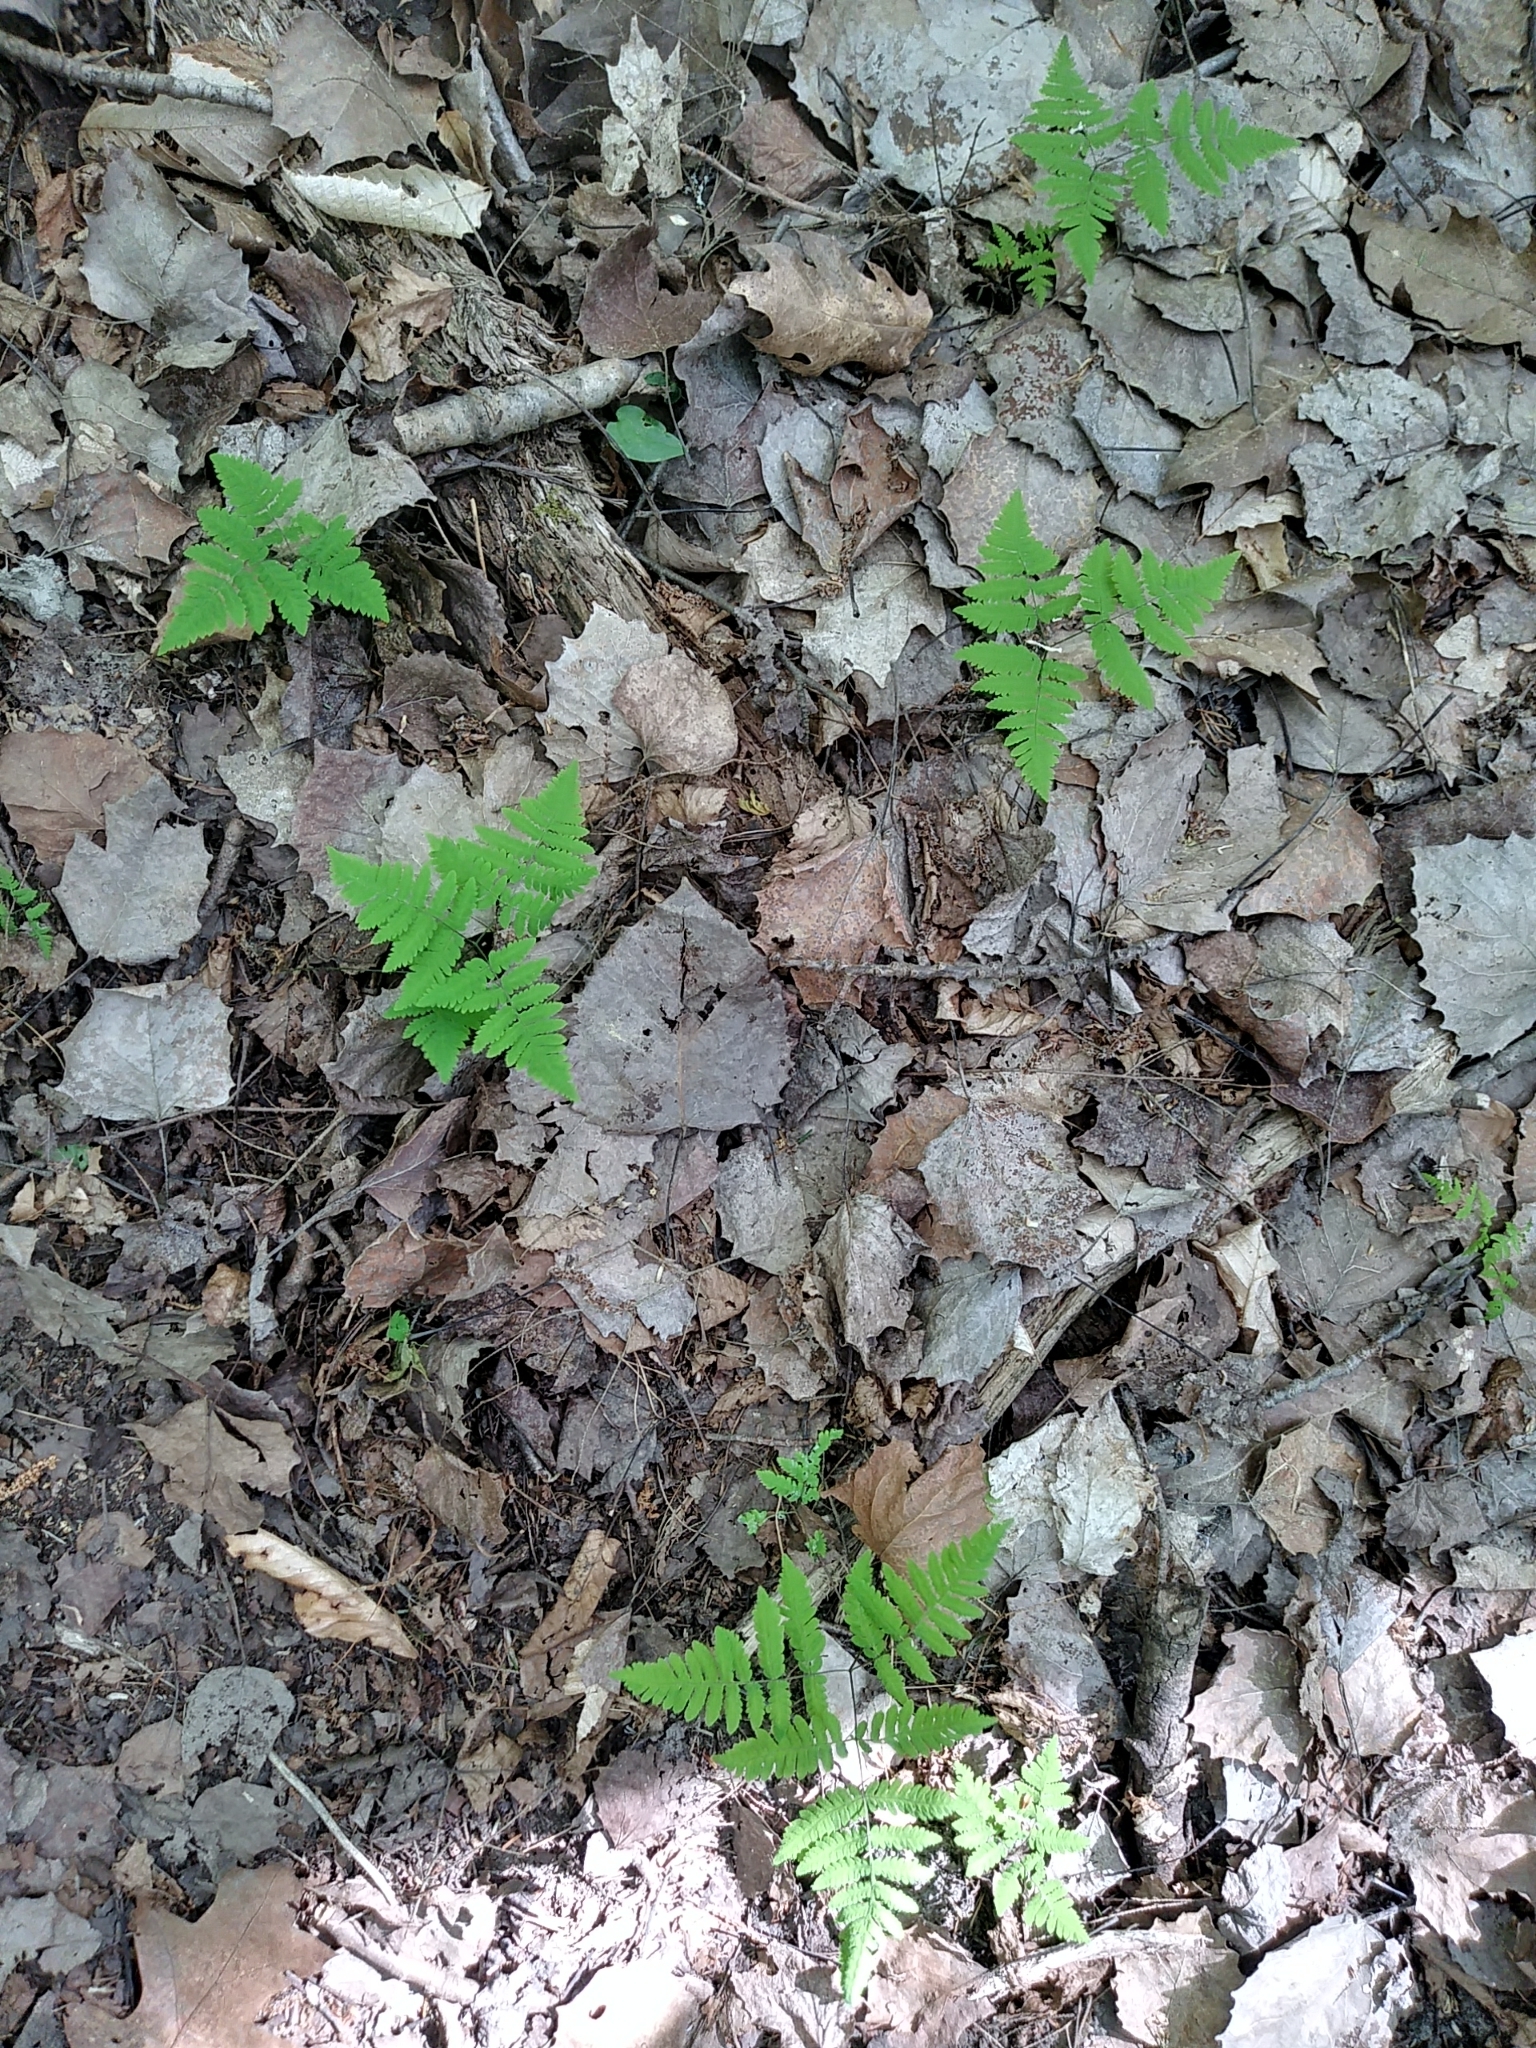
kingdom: Plantae
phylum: Tracheophyta
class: Polypodiopsida
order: Polypodiales
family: Cystopteridaceae
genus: Gymnocarpium
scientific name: Gymnocarpium dryopteris
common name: Oak fern
